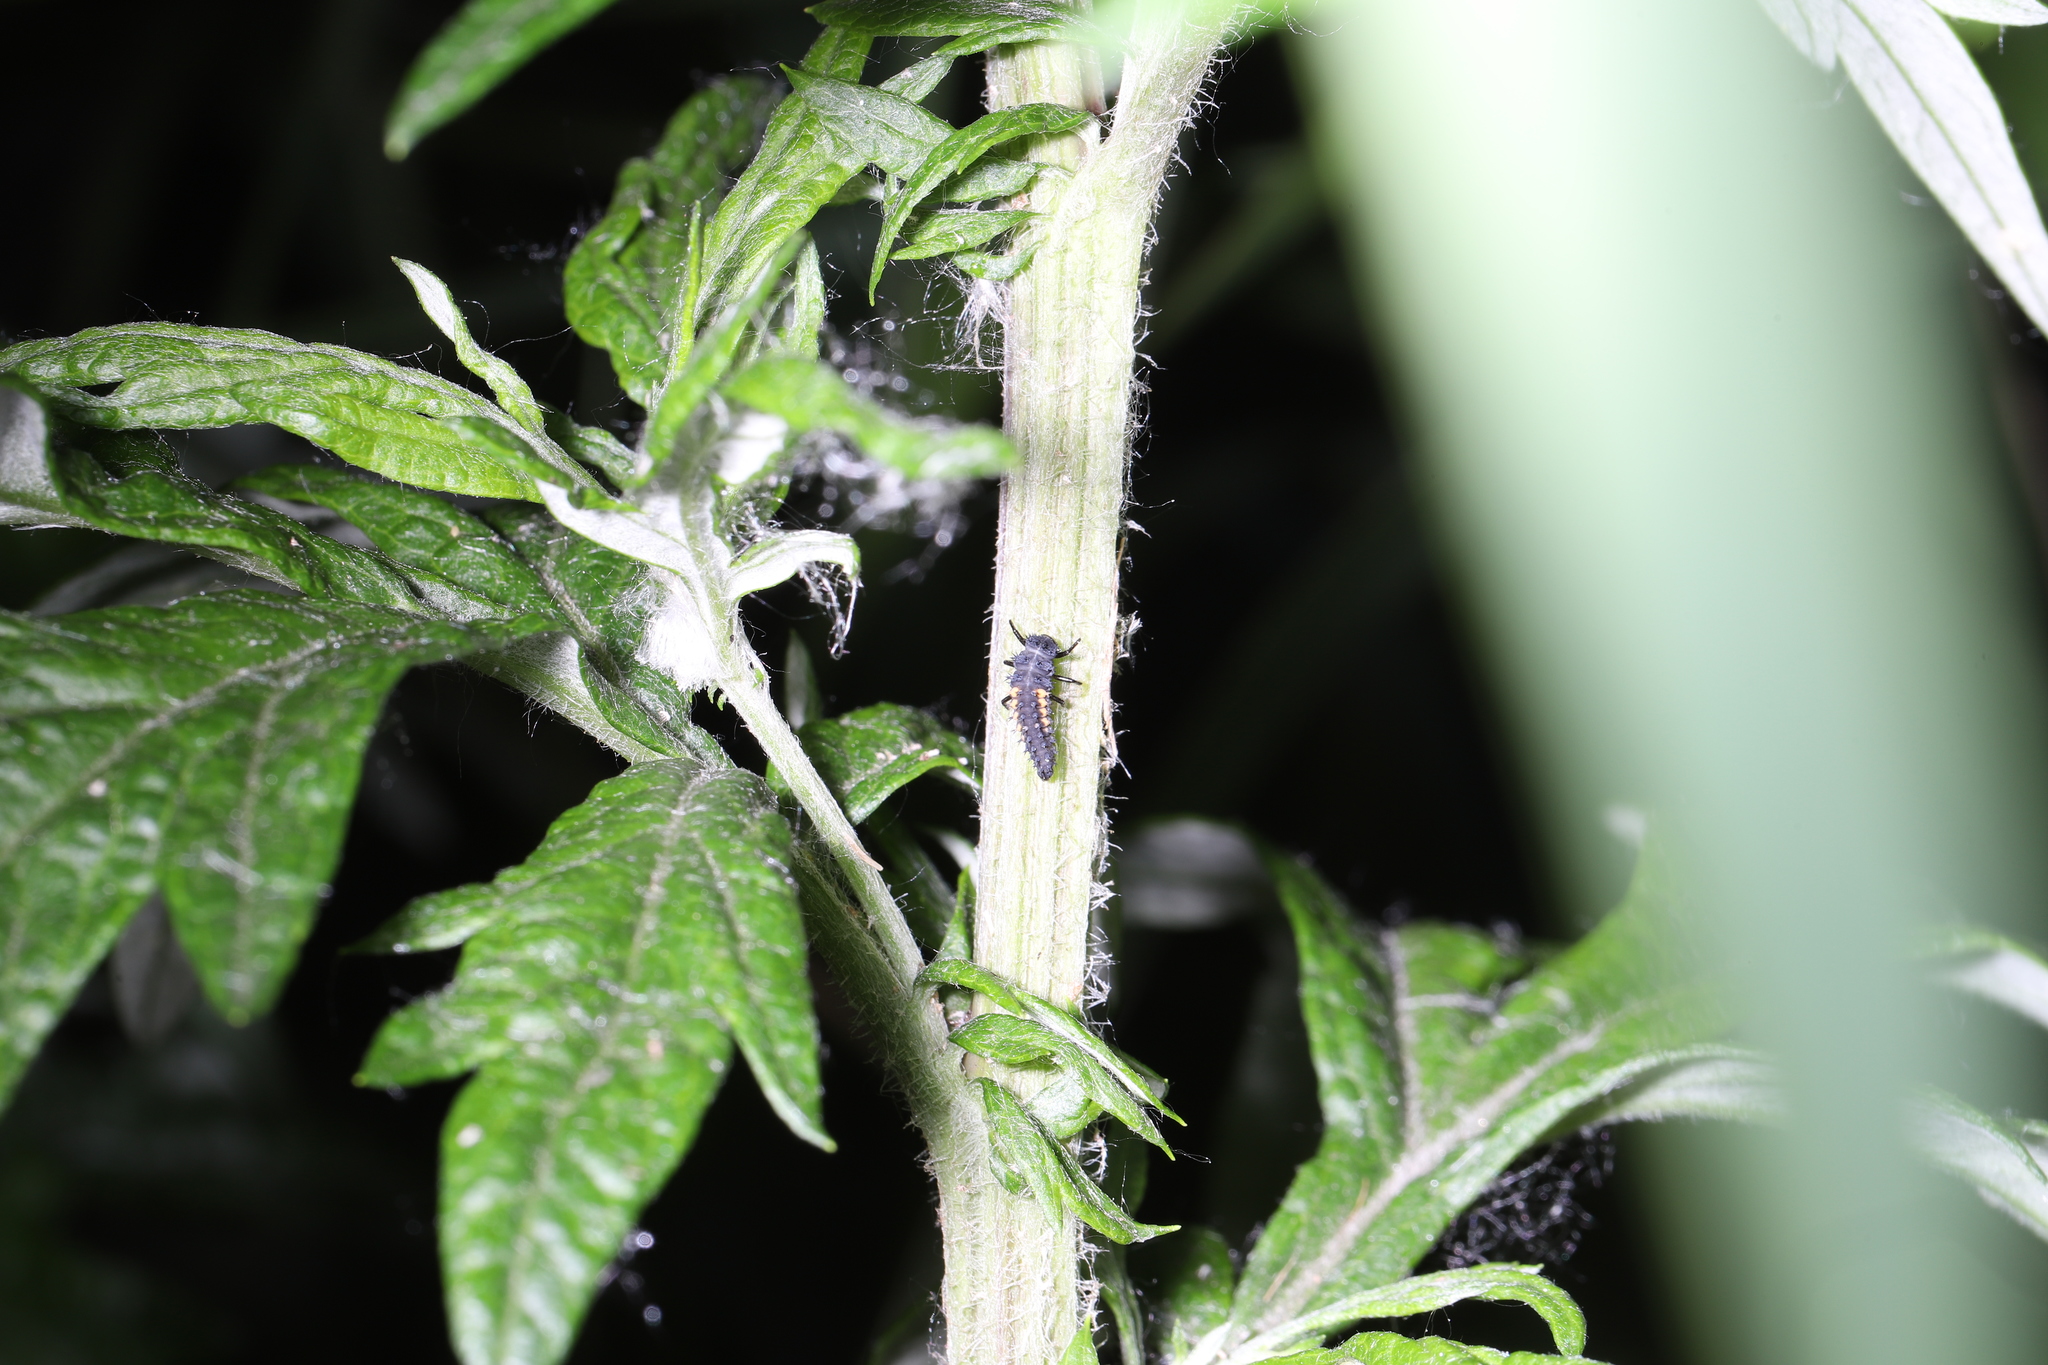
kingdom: Animalia
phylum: Arthropoda
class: Insecta
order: Coleoptera
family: Coccinellidae
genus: Harmonia
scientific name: Harmonia axyridis
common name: Harlequin ladybird
